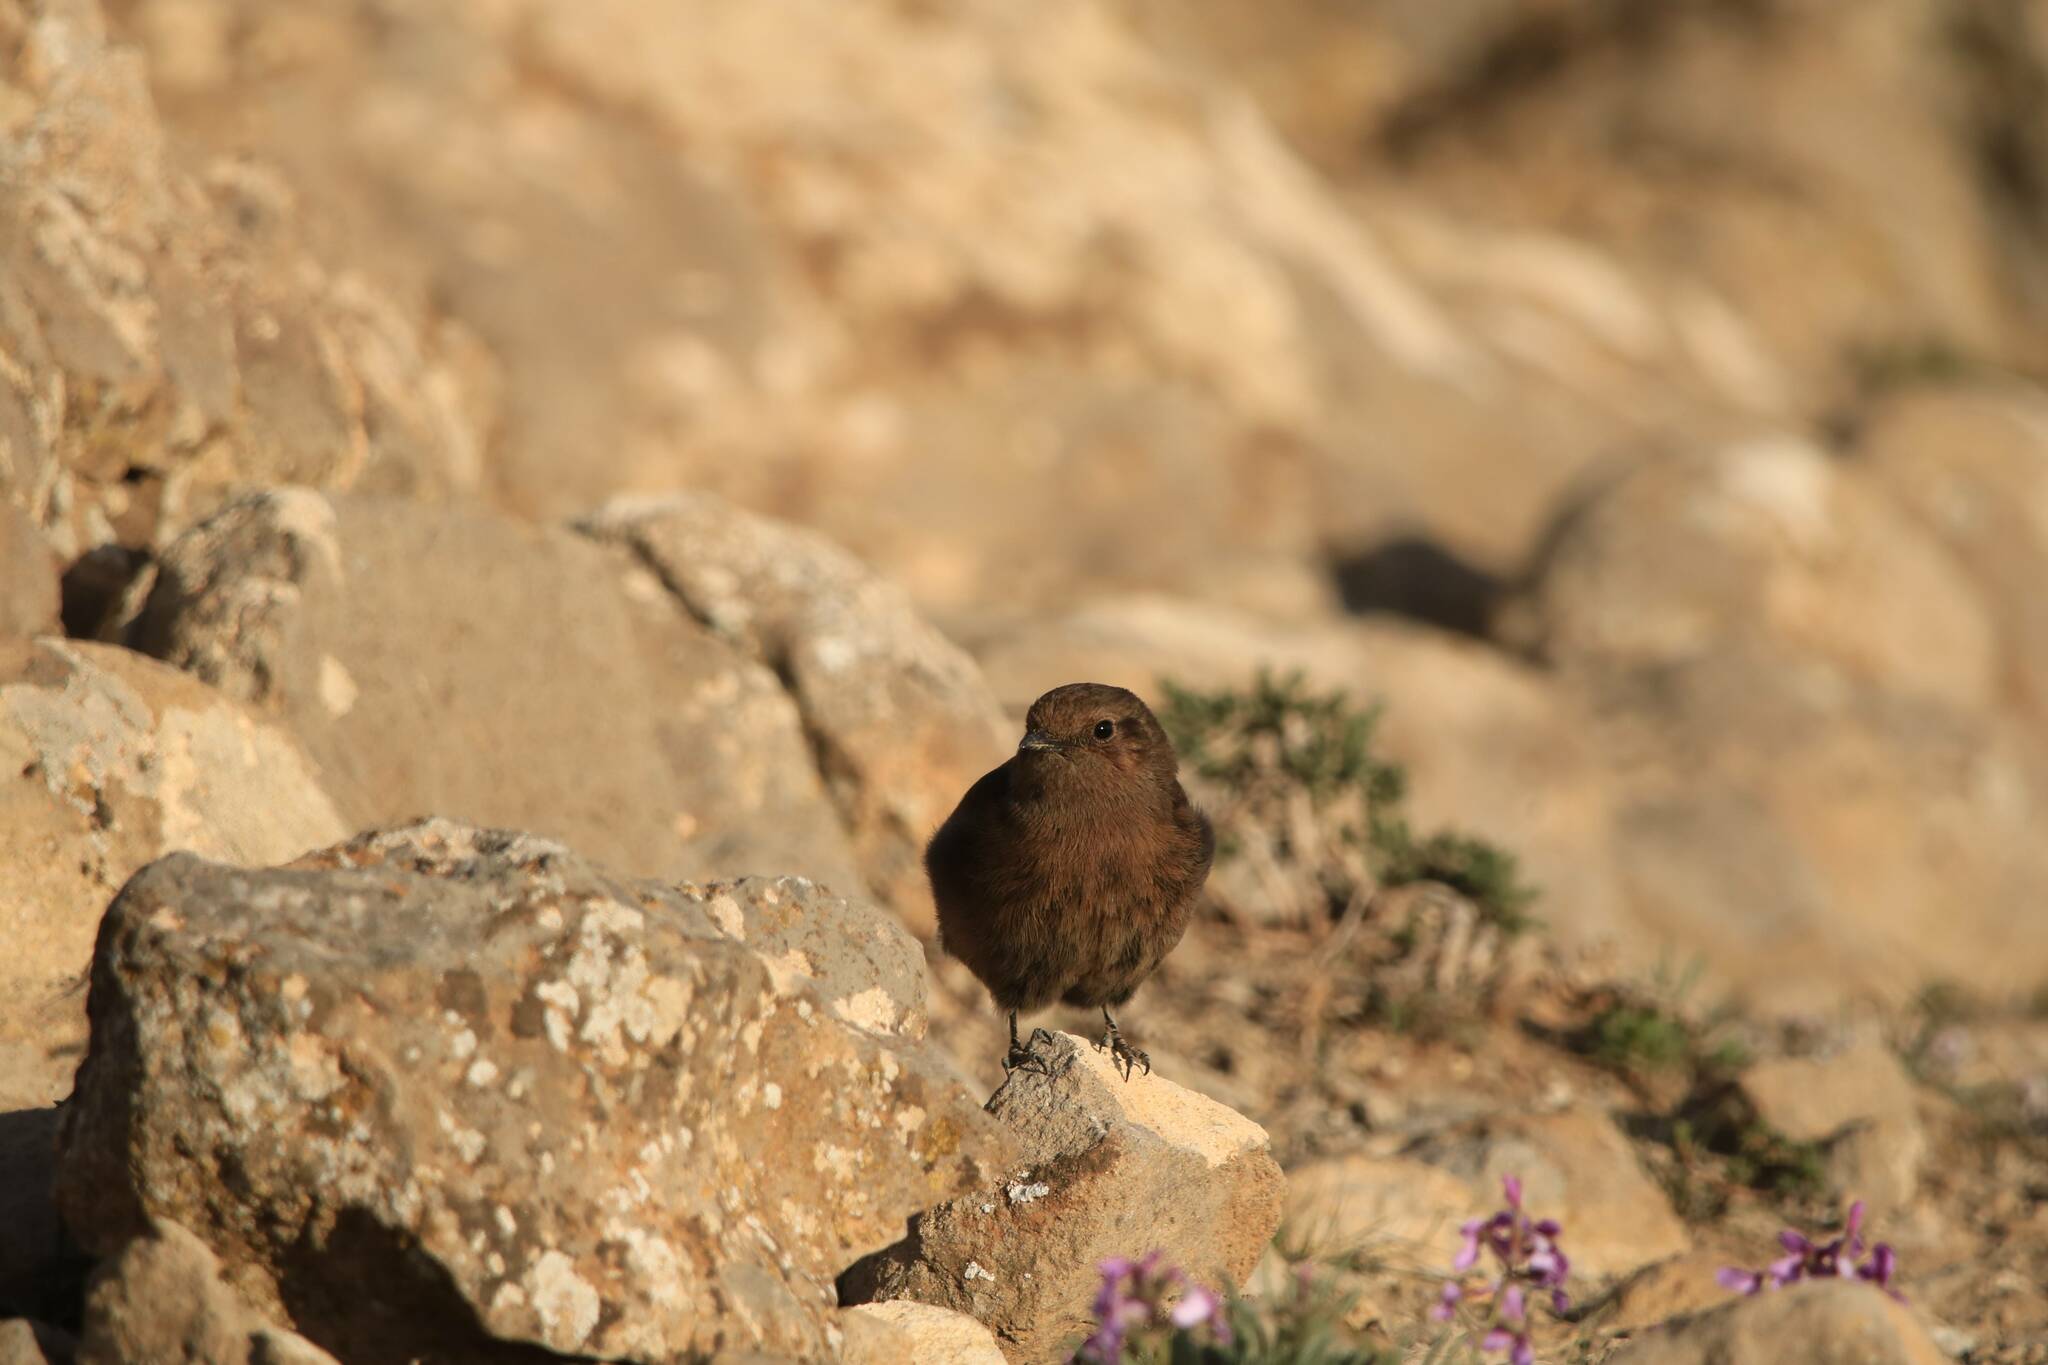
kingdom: Animalia
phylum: Chordata
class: Aves
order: Passeriformes
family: Muscicapidae
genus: Oenanthe
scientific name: Oenanthe leucura
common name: Black wheatear
